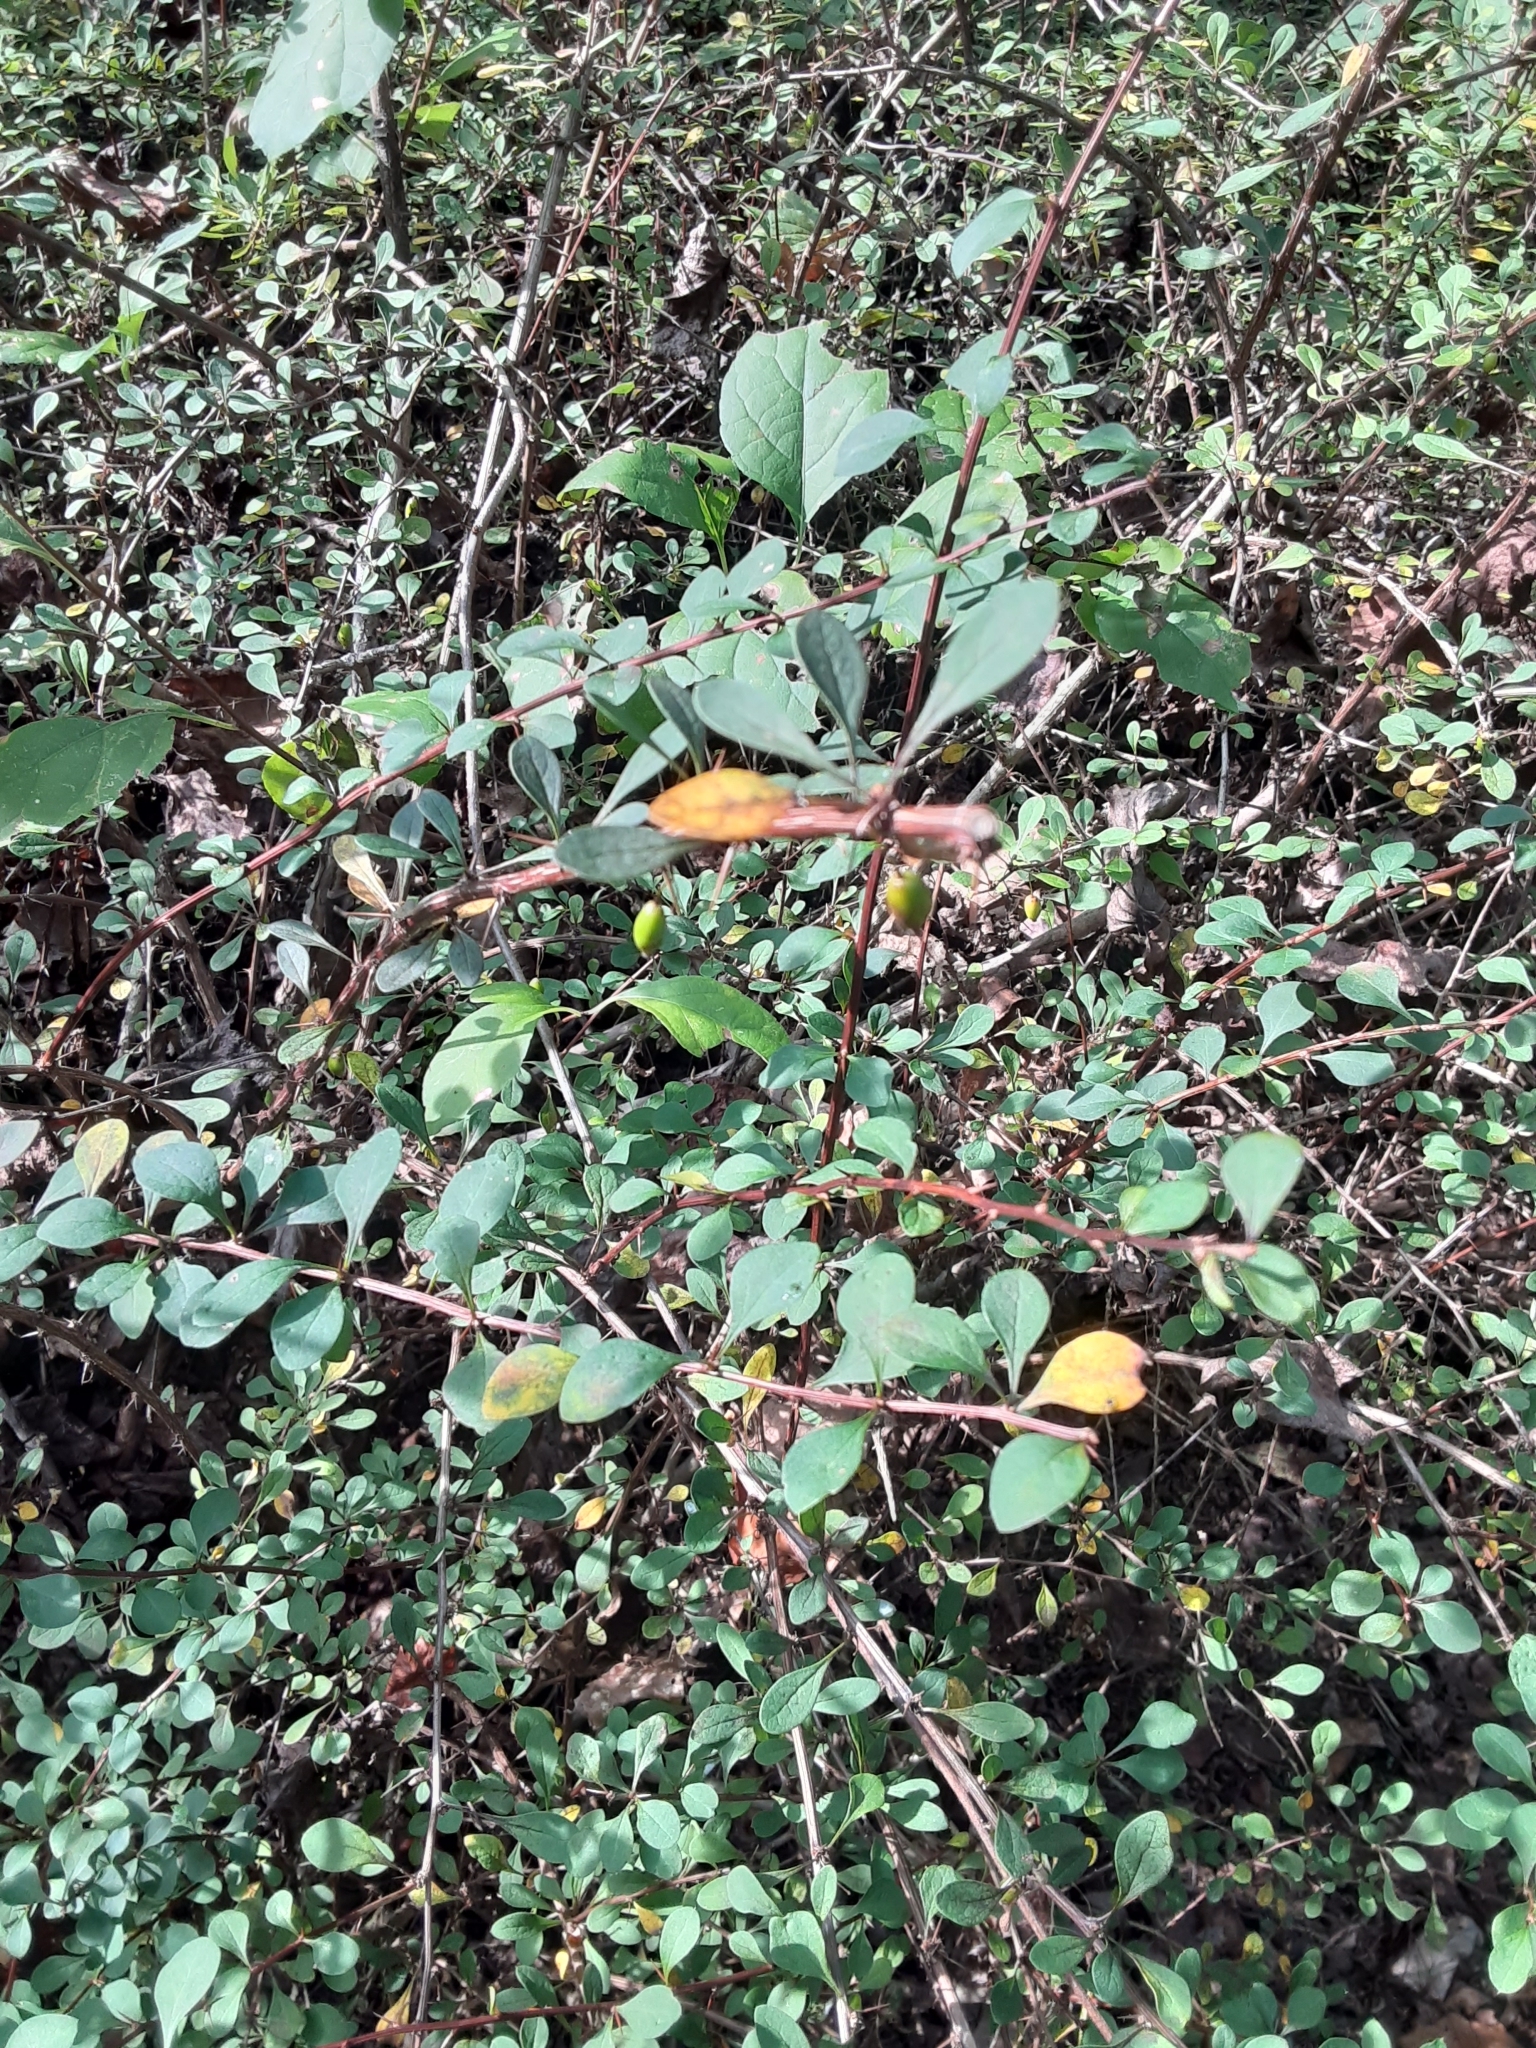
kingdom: Plantae
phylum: Tracheophyta
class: Magnoliopsida
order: Ranunculales
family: Berberidaceae
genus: Berberis
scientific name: Berberis thunbergii
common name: Japanese barberry
